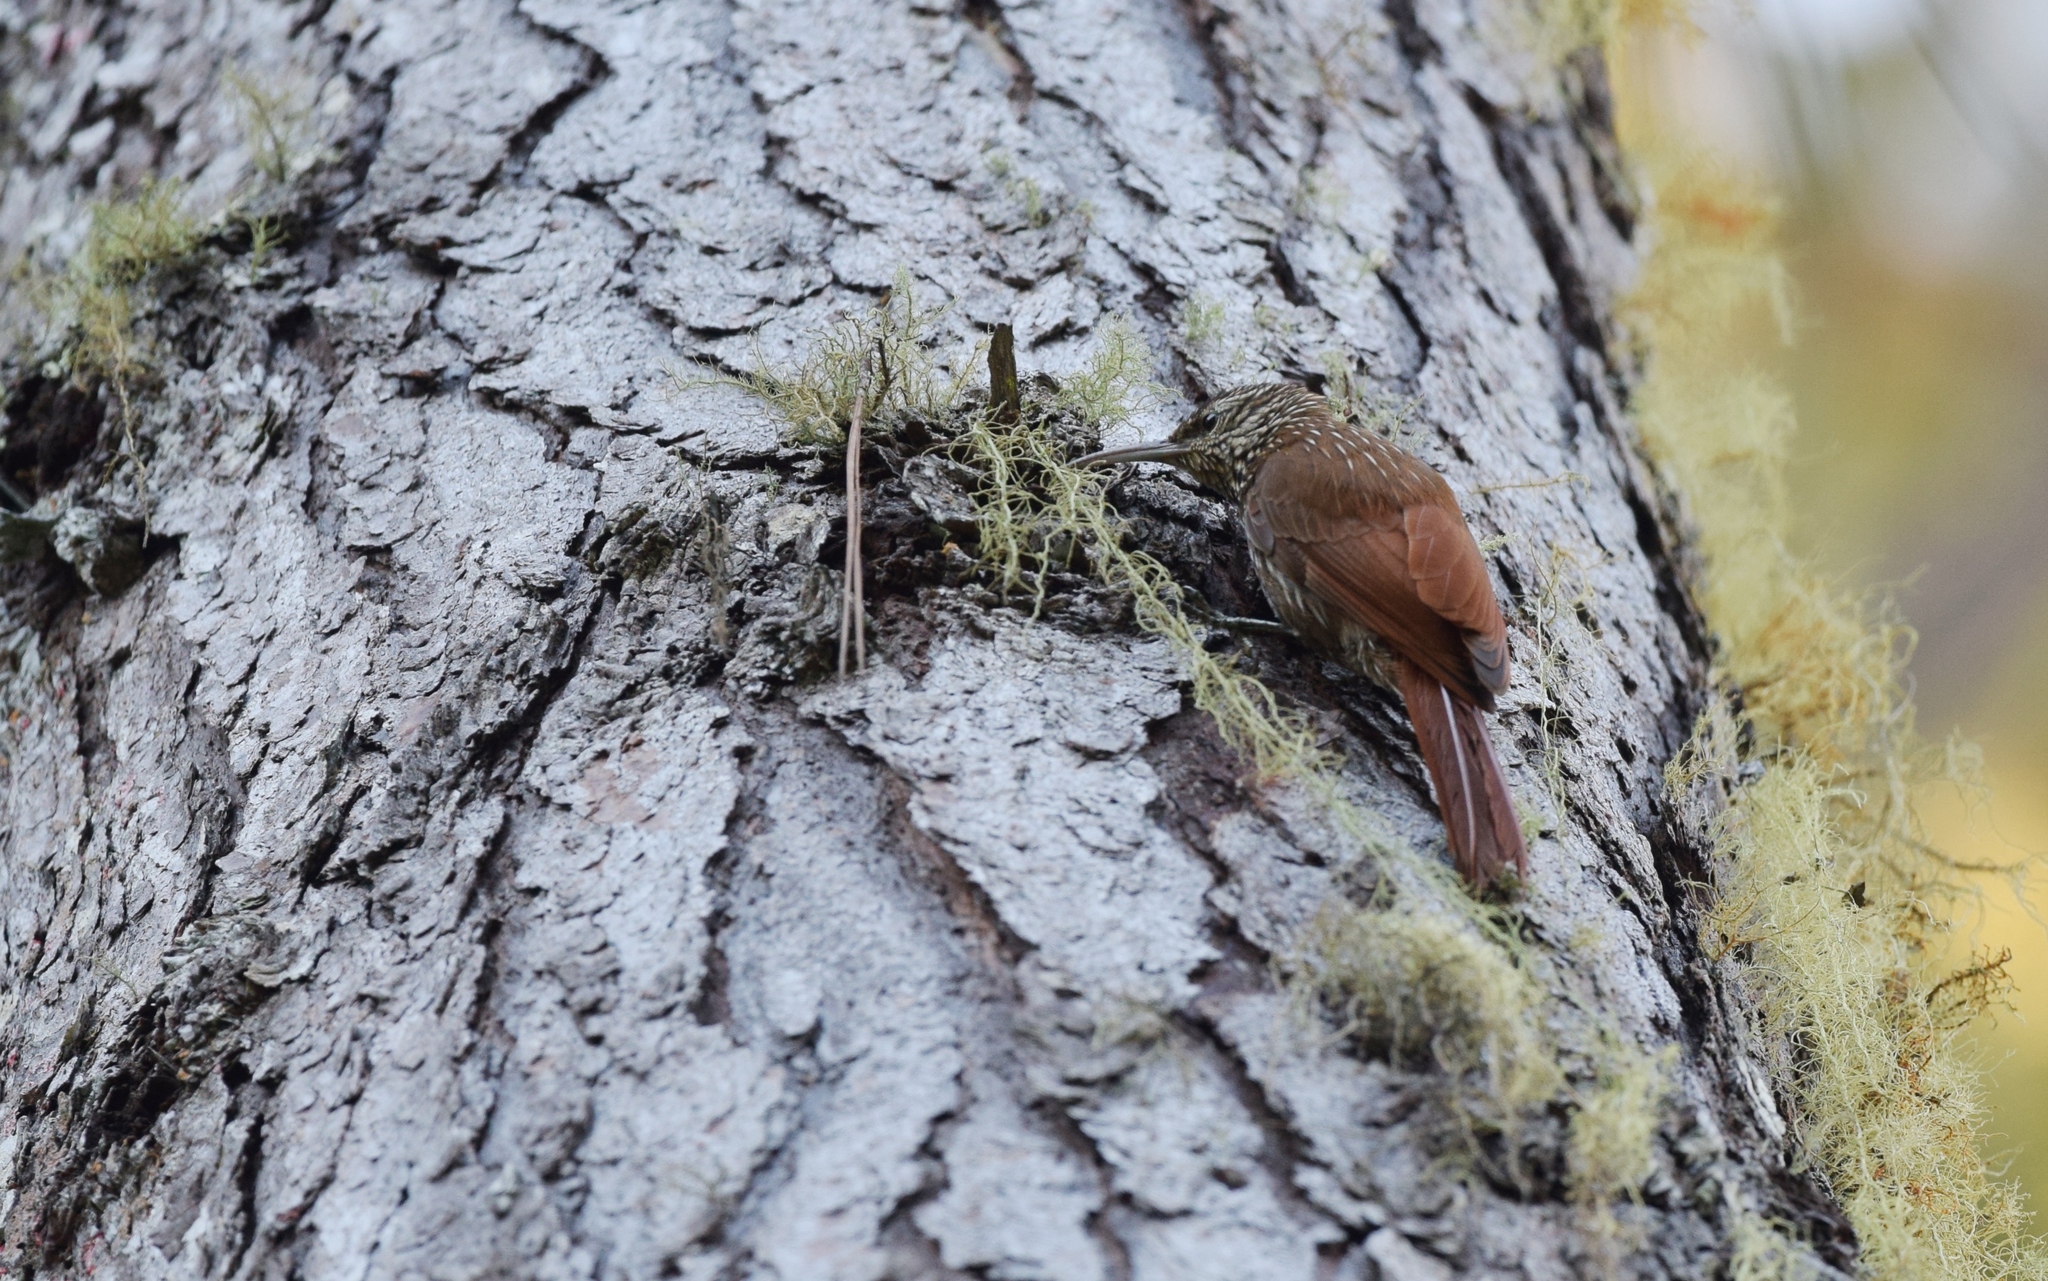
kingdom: Animalia
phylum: Chordata
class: Aves
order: Passeriformes
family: Furnariidae
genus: Lepidocolaptes
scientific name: Lepidocolaptes souleyetii
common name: Streak-headed woodcreeper
